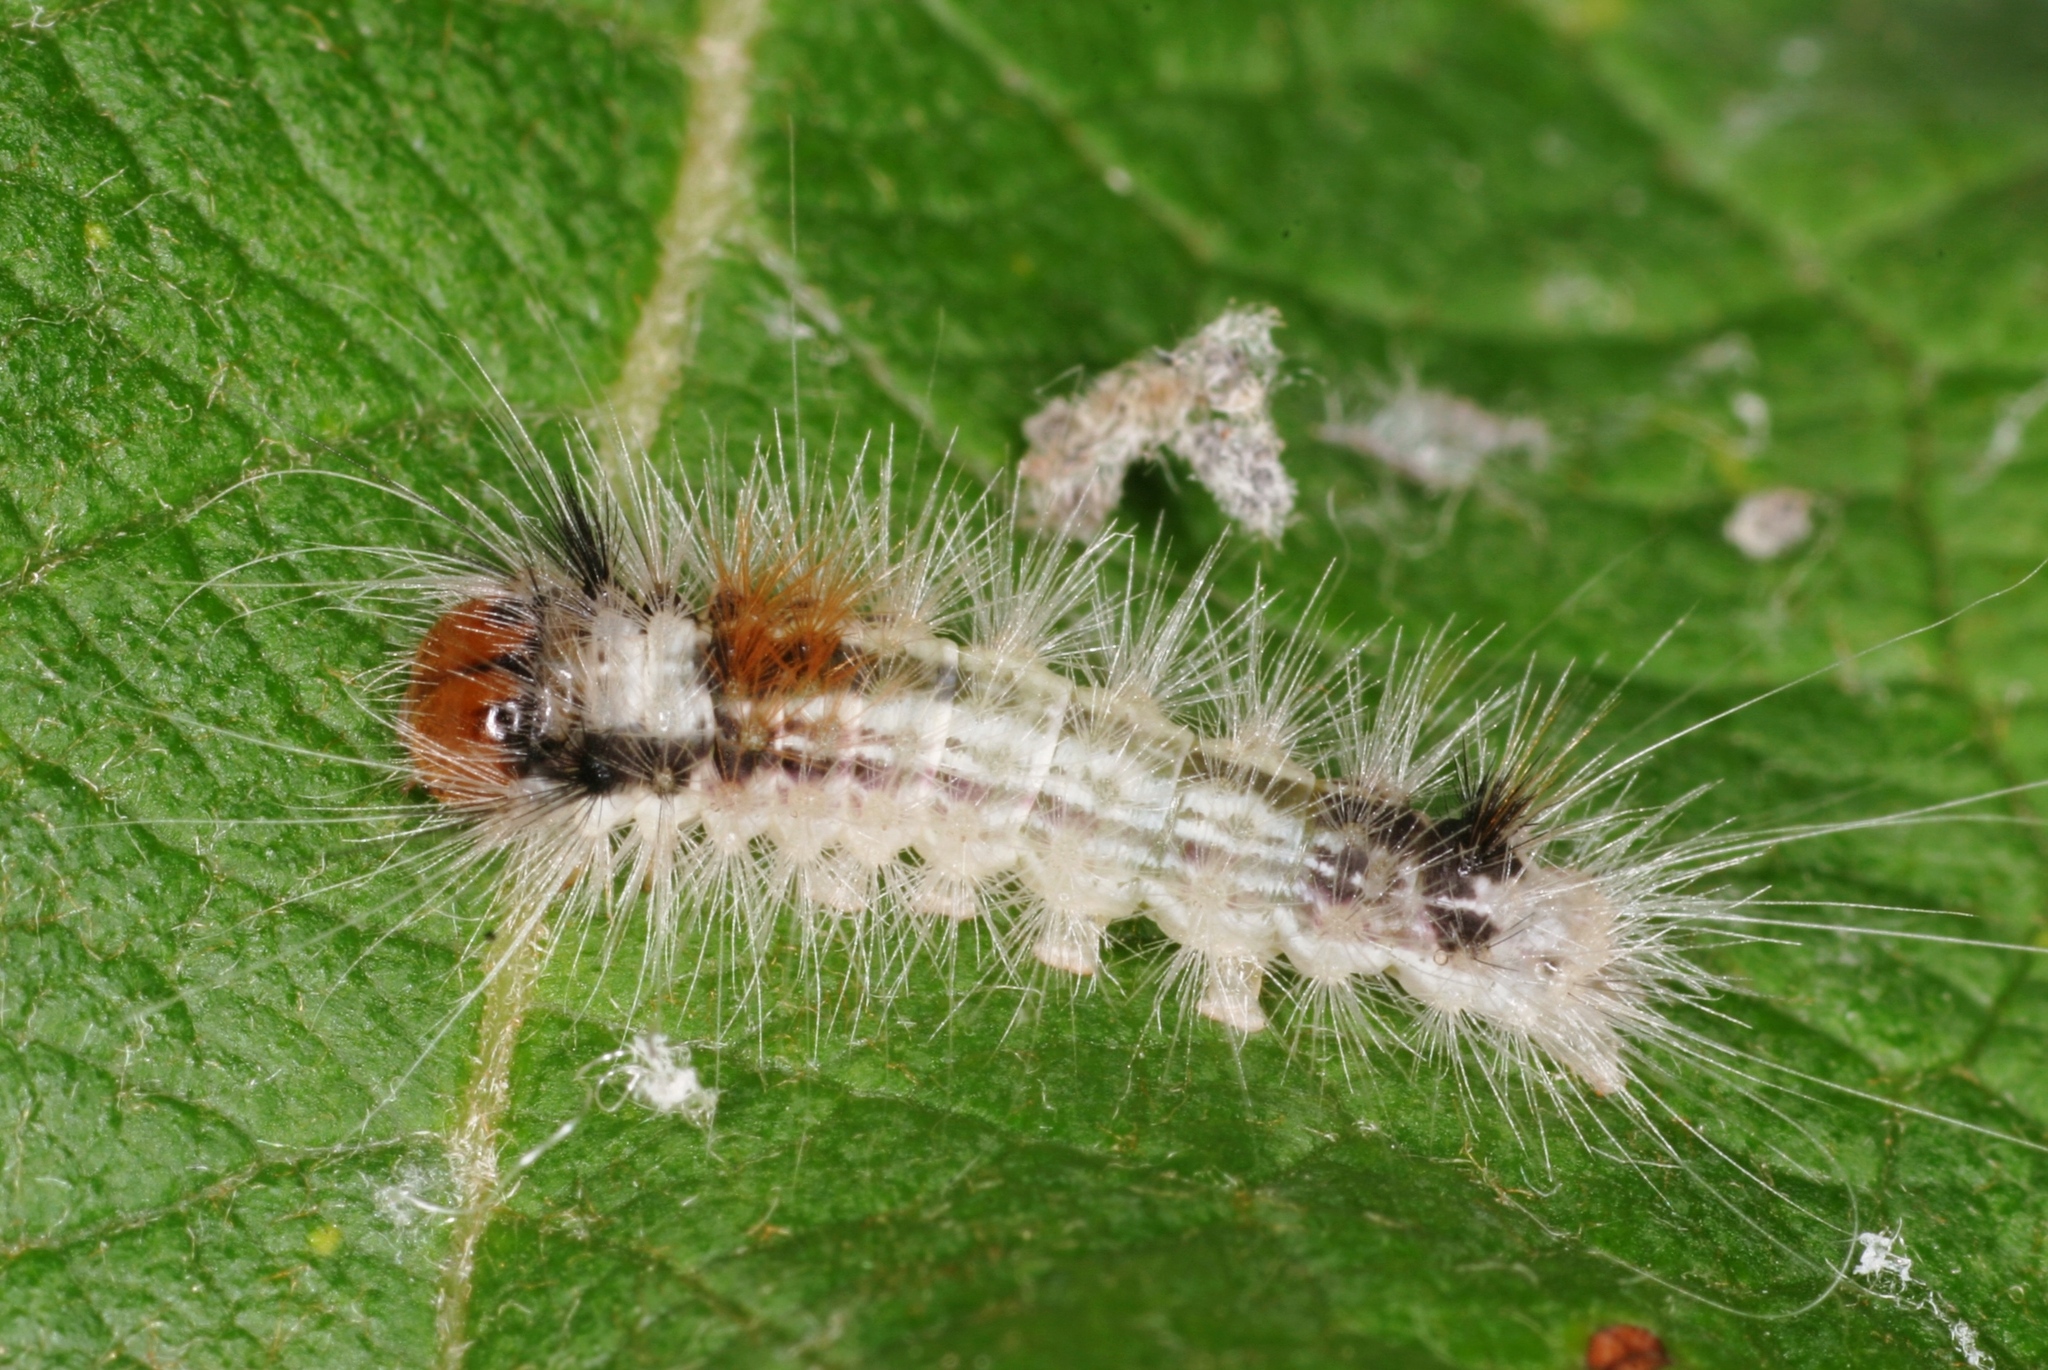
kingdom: Animalia
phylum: Arthropoda
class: Insecta
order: Lepidoptera
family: Noctuidae
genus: Colocasia
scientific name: Colocasia coryli
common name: Nut-tree tussock
